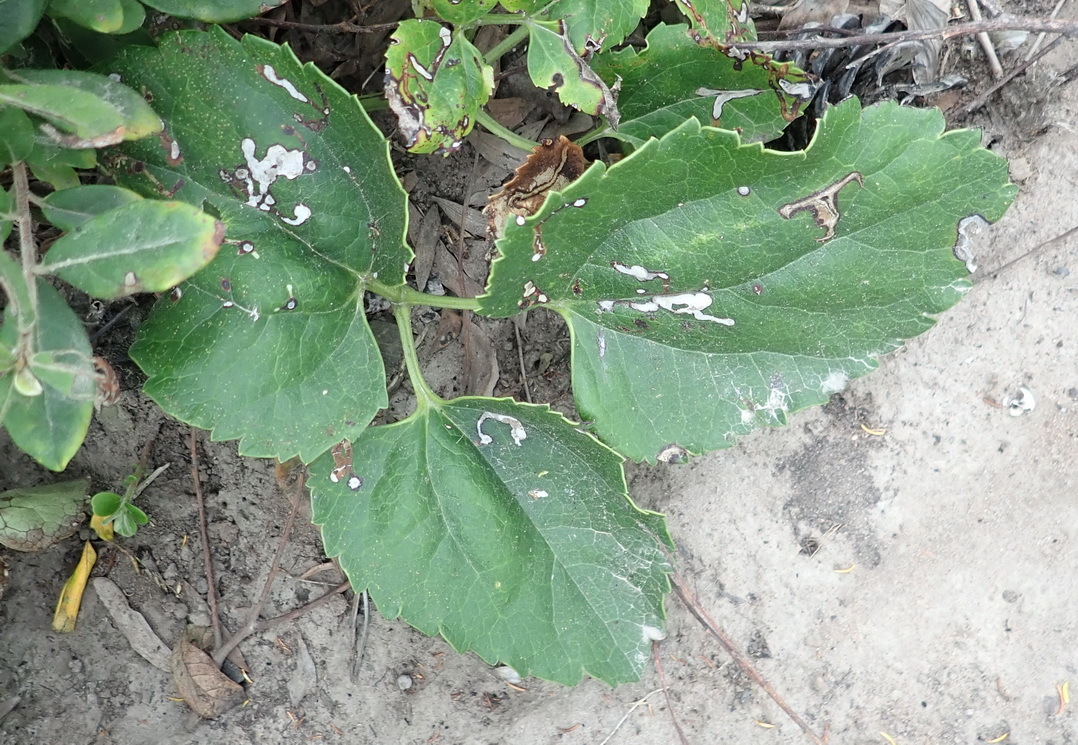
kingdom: Plantae
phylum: Tracheophyta
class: Magnoliopsida
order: Ranunculales
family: Ranunculaceae
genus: Knowltonia
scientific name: Knowltonia vesicatoria
